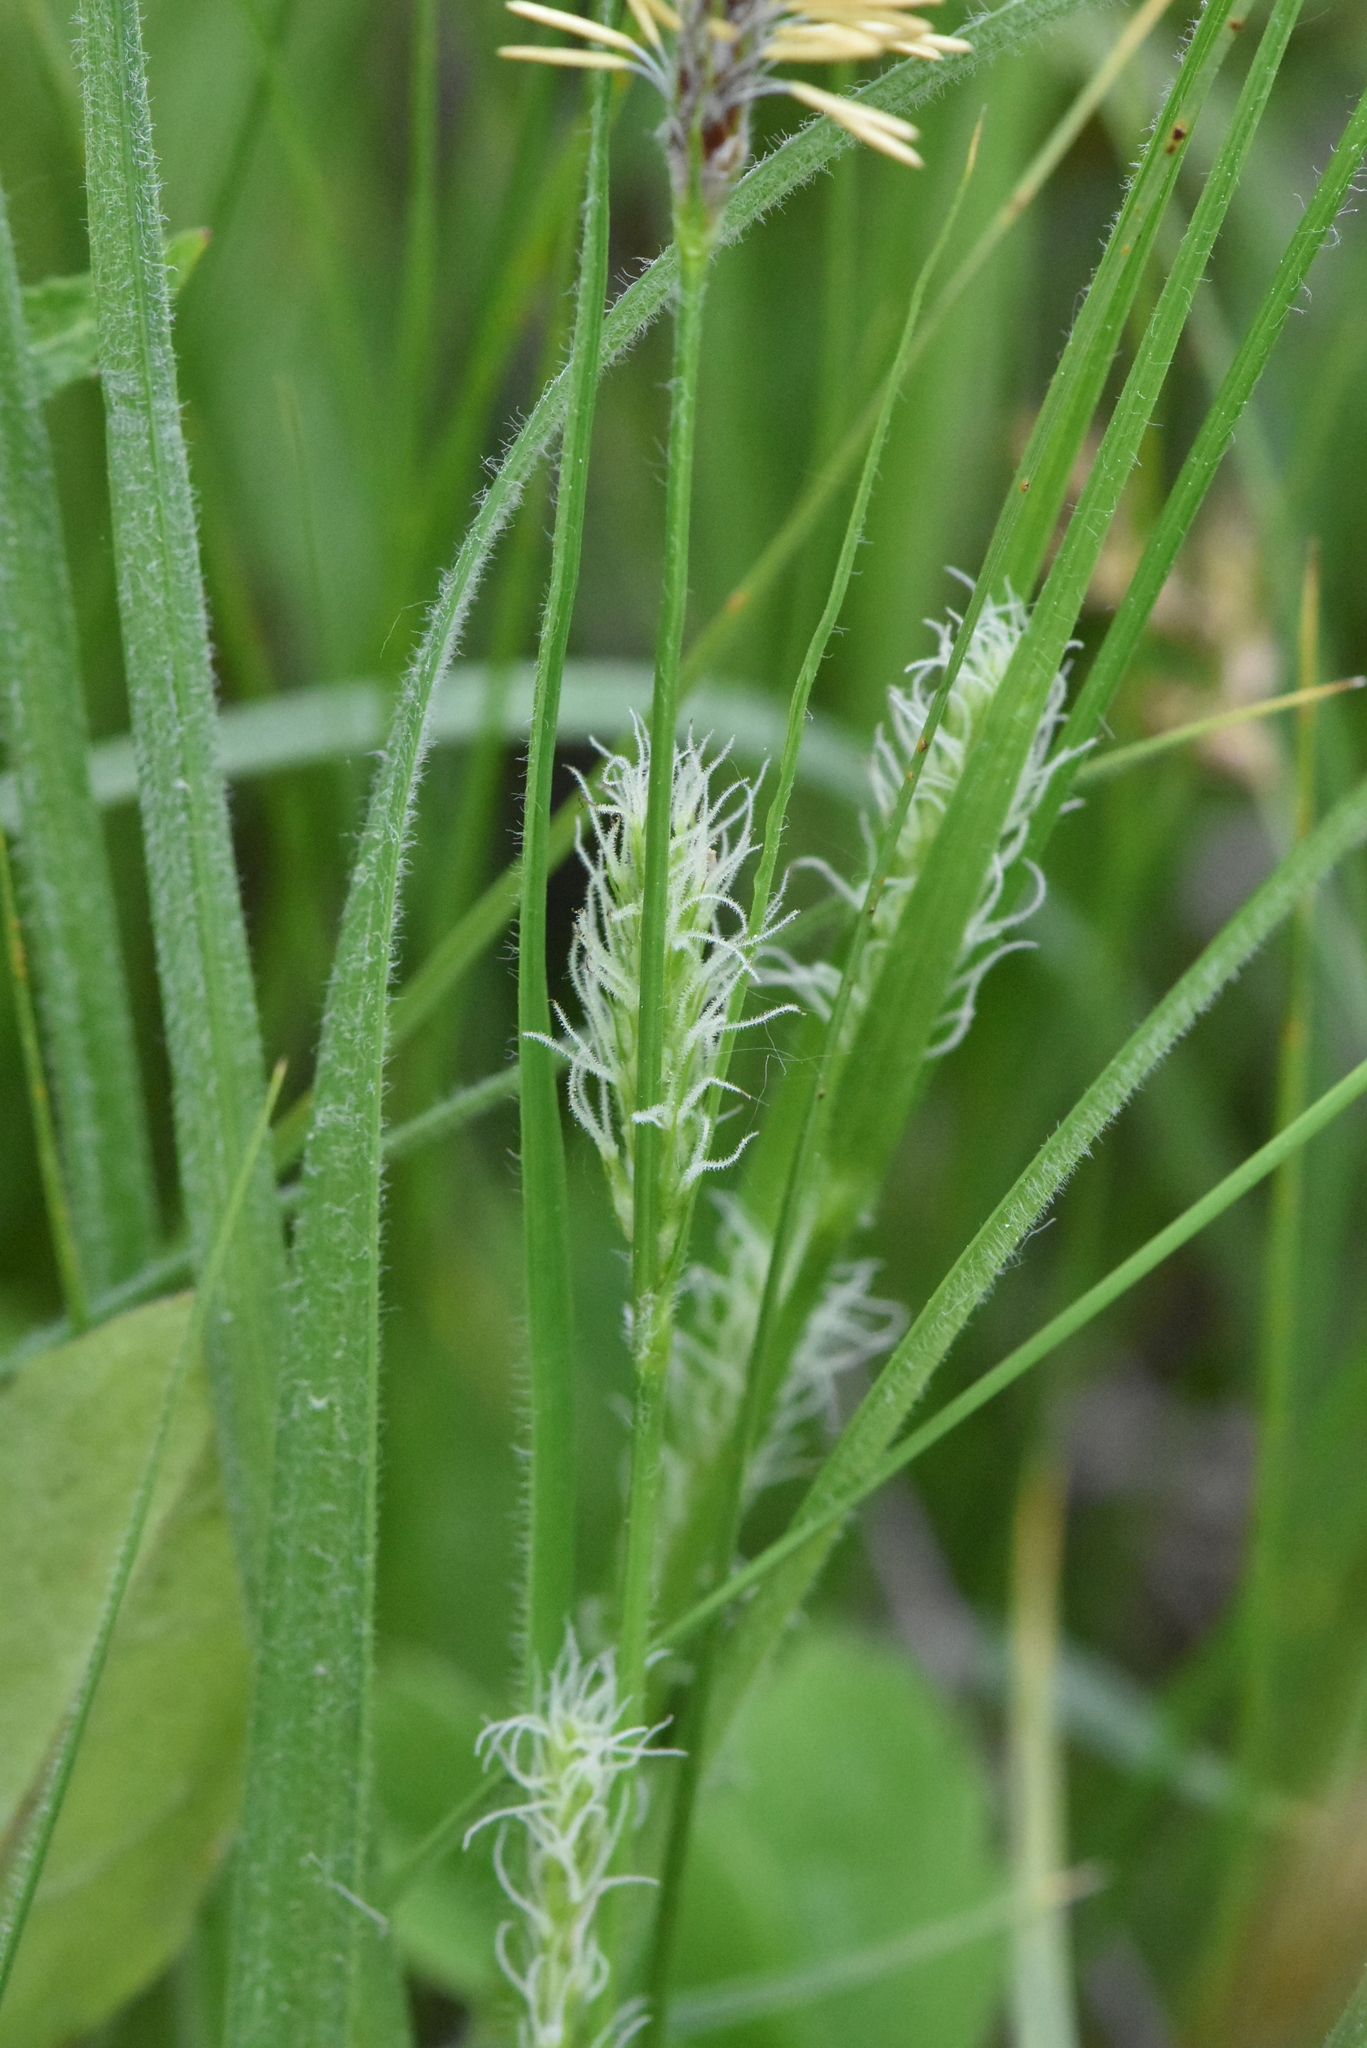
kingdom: Plantae
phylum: Tracheophyta
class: Liliopsida
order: Poales
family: Cyperaceae
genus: Carex
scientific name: Carex hirta
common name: Hairy sedge
